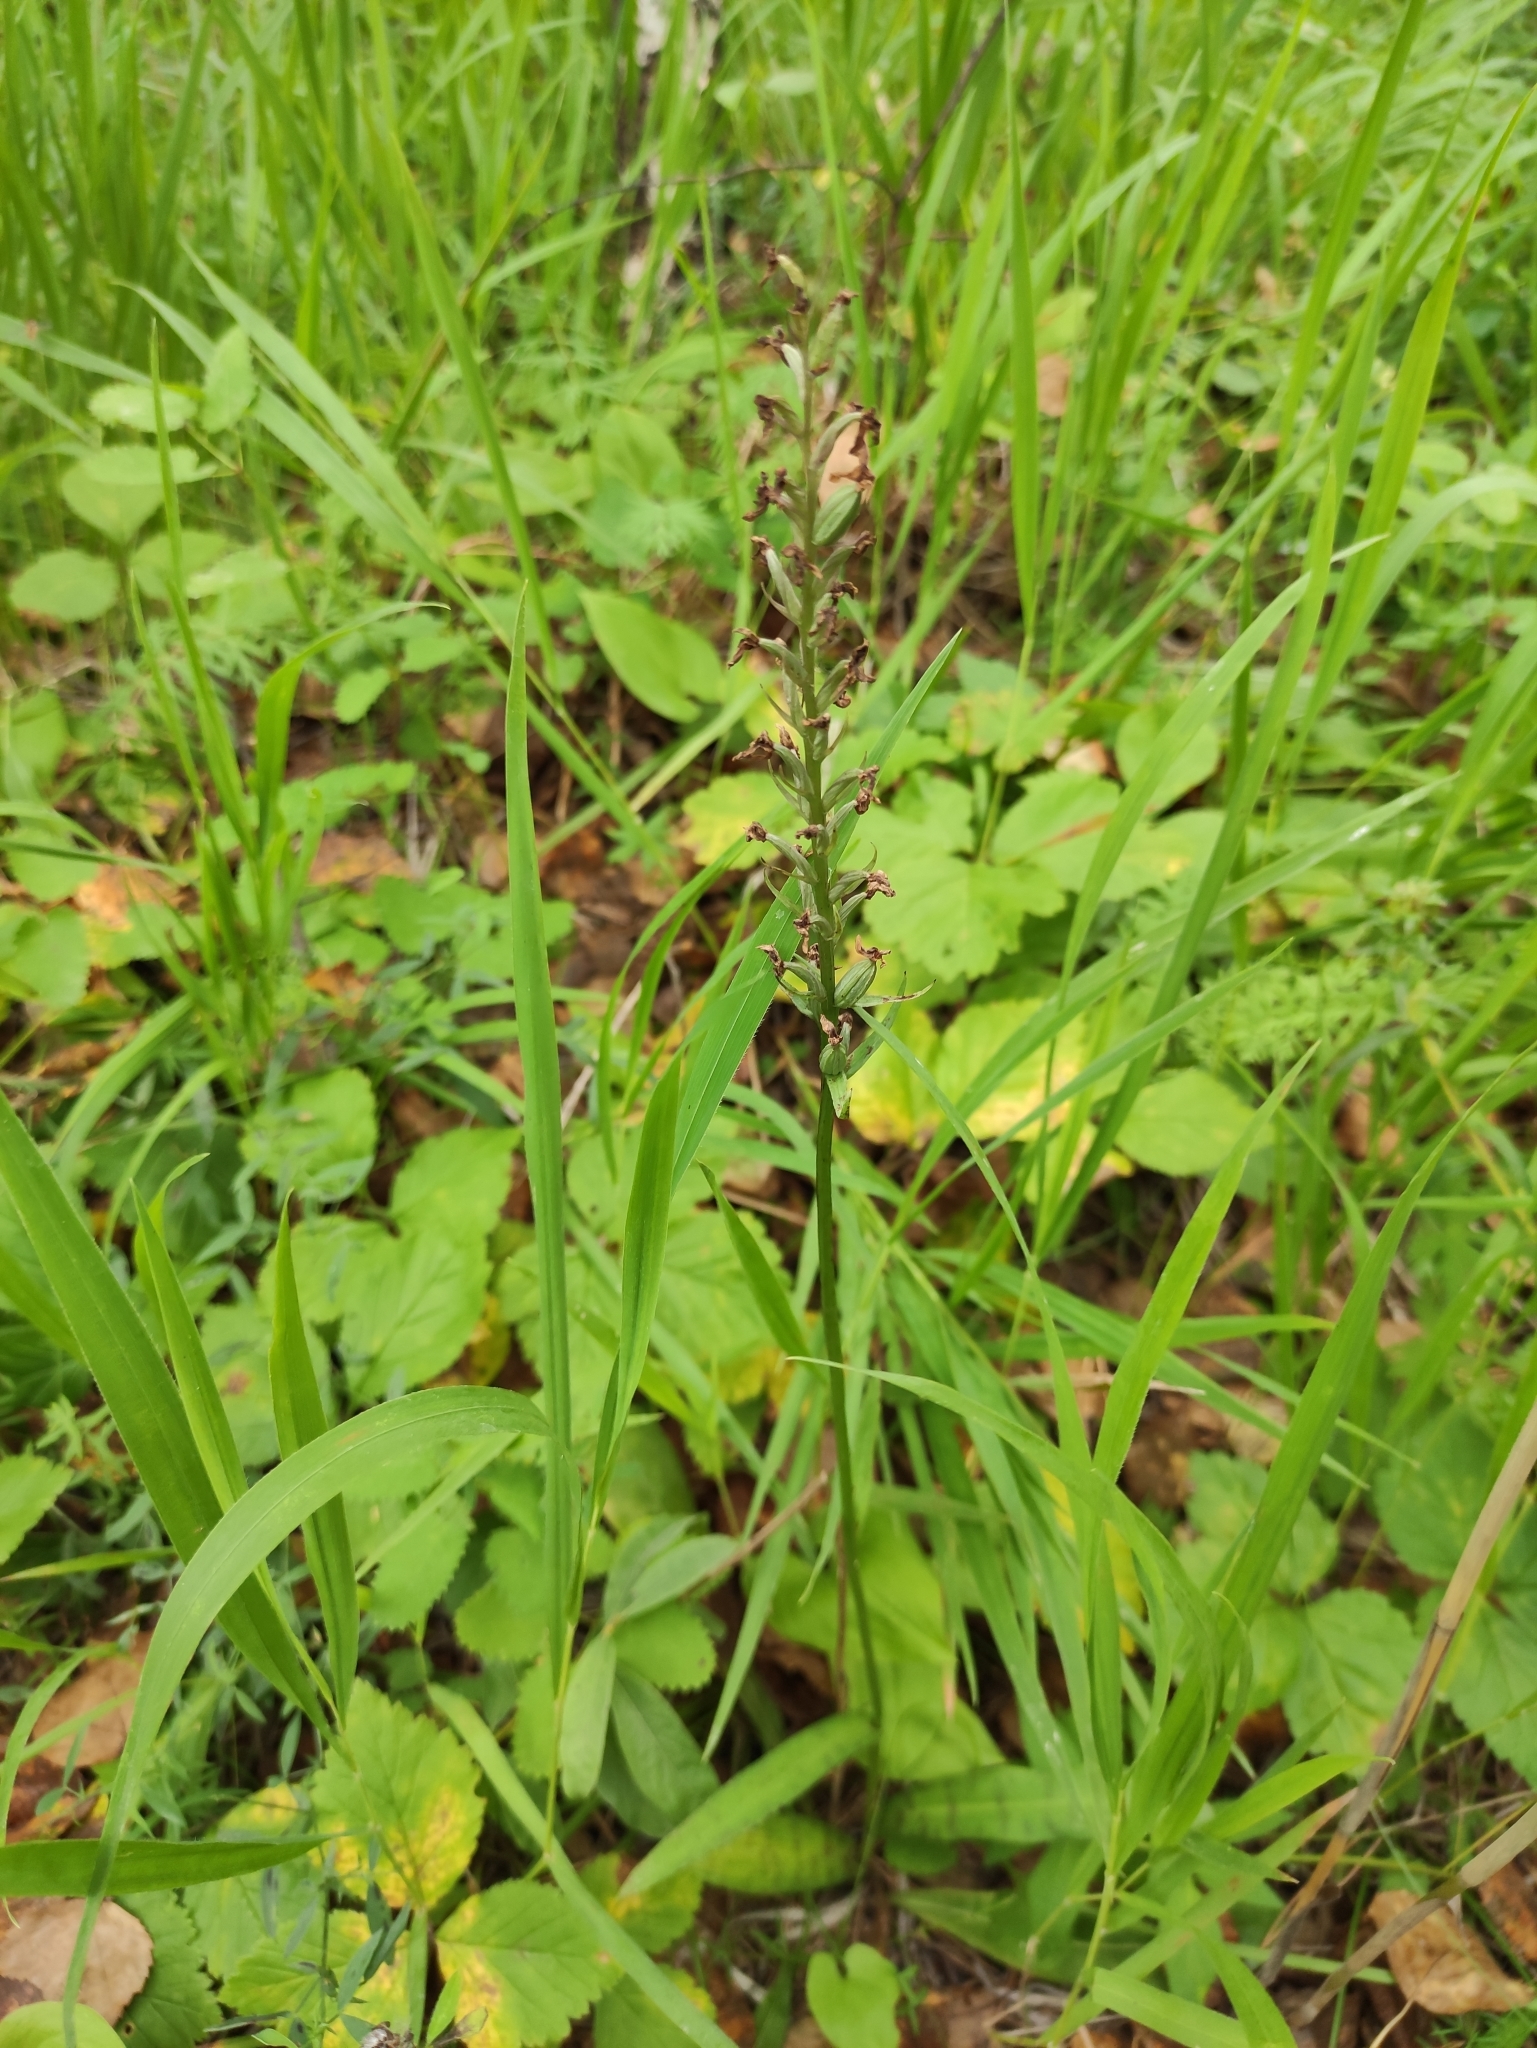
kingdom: Plantae
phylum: Tracheophyta
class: Liliopsida
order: Asparagales
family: Orchidaceae
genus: Dactylorhiza
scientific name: Dactylorhiza maculata
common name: Heath spotted-orchid
